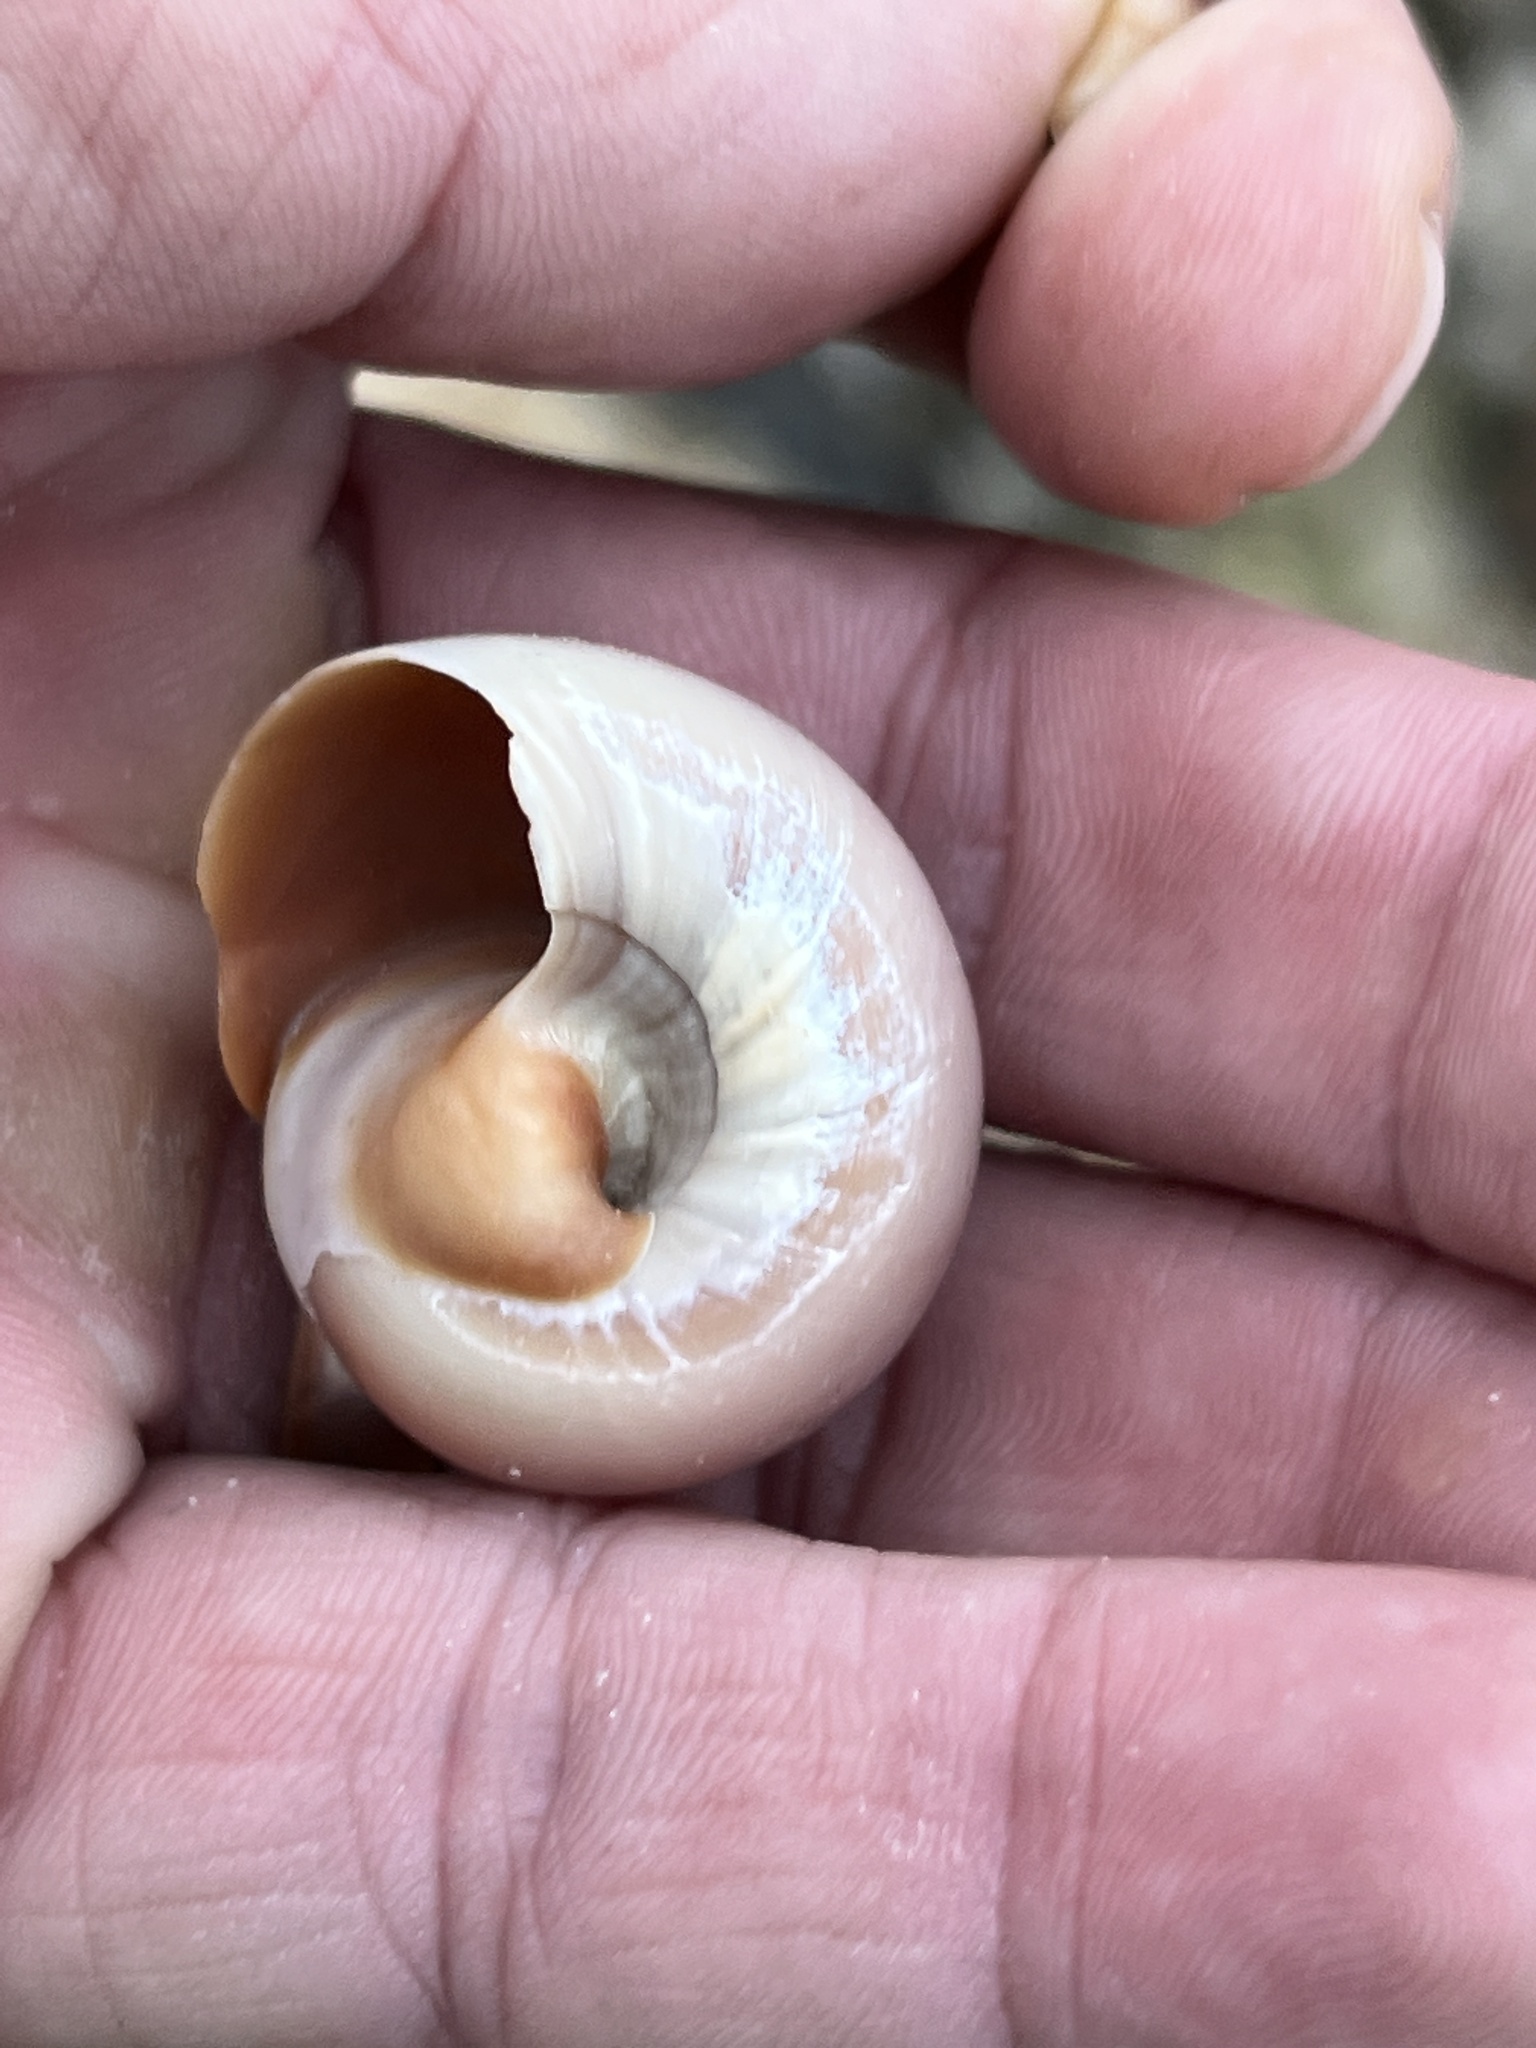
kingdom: Animalia
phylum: Mollusca
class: Gastropoda
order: Littorinimorpha
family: Naticidae
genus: Neverita
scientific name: Neverita delessertiana
